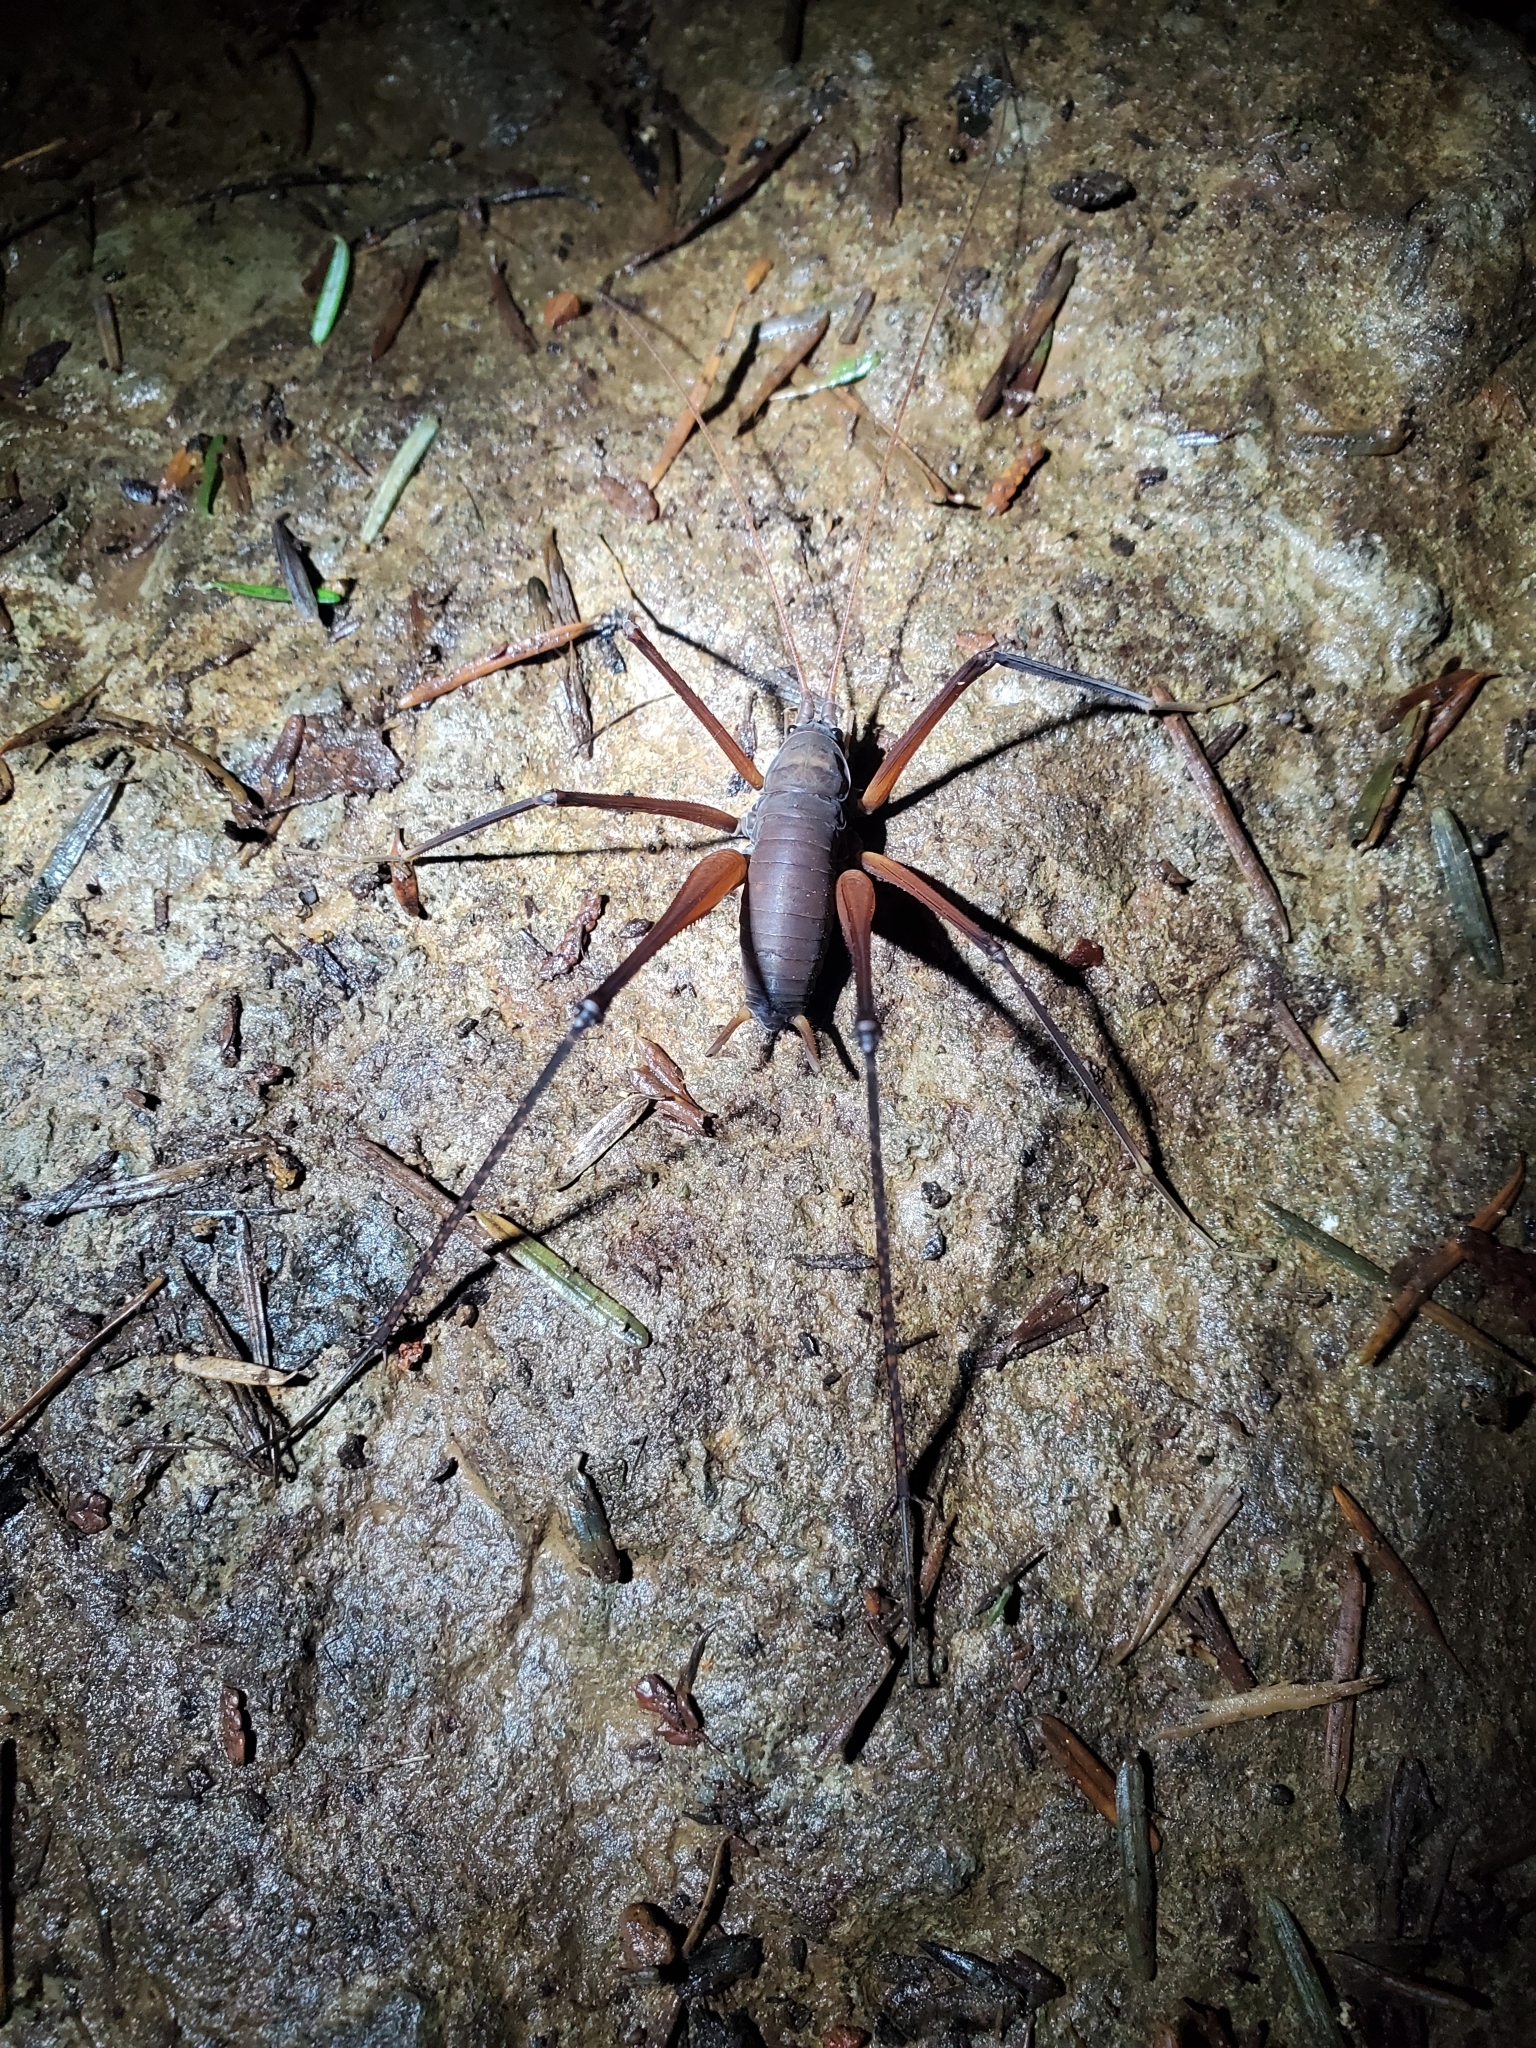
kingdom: Animalia
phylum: Arthropoda
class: Insecta
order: Orthoptera
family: Rhaphidophoridae
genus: Tropidischia
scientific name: Tropidischia xanthostoma
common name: Square-legged camel cricket
